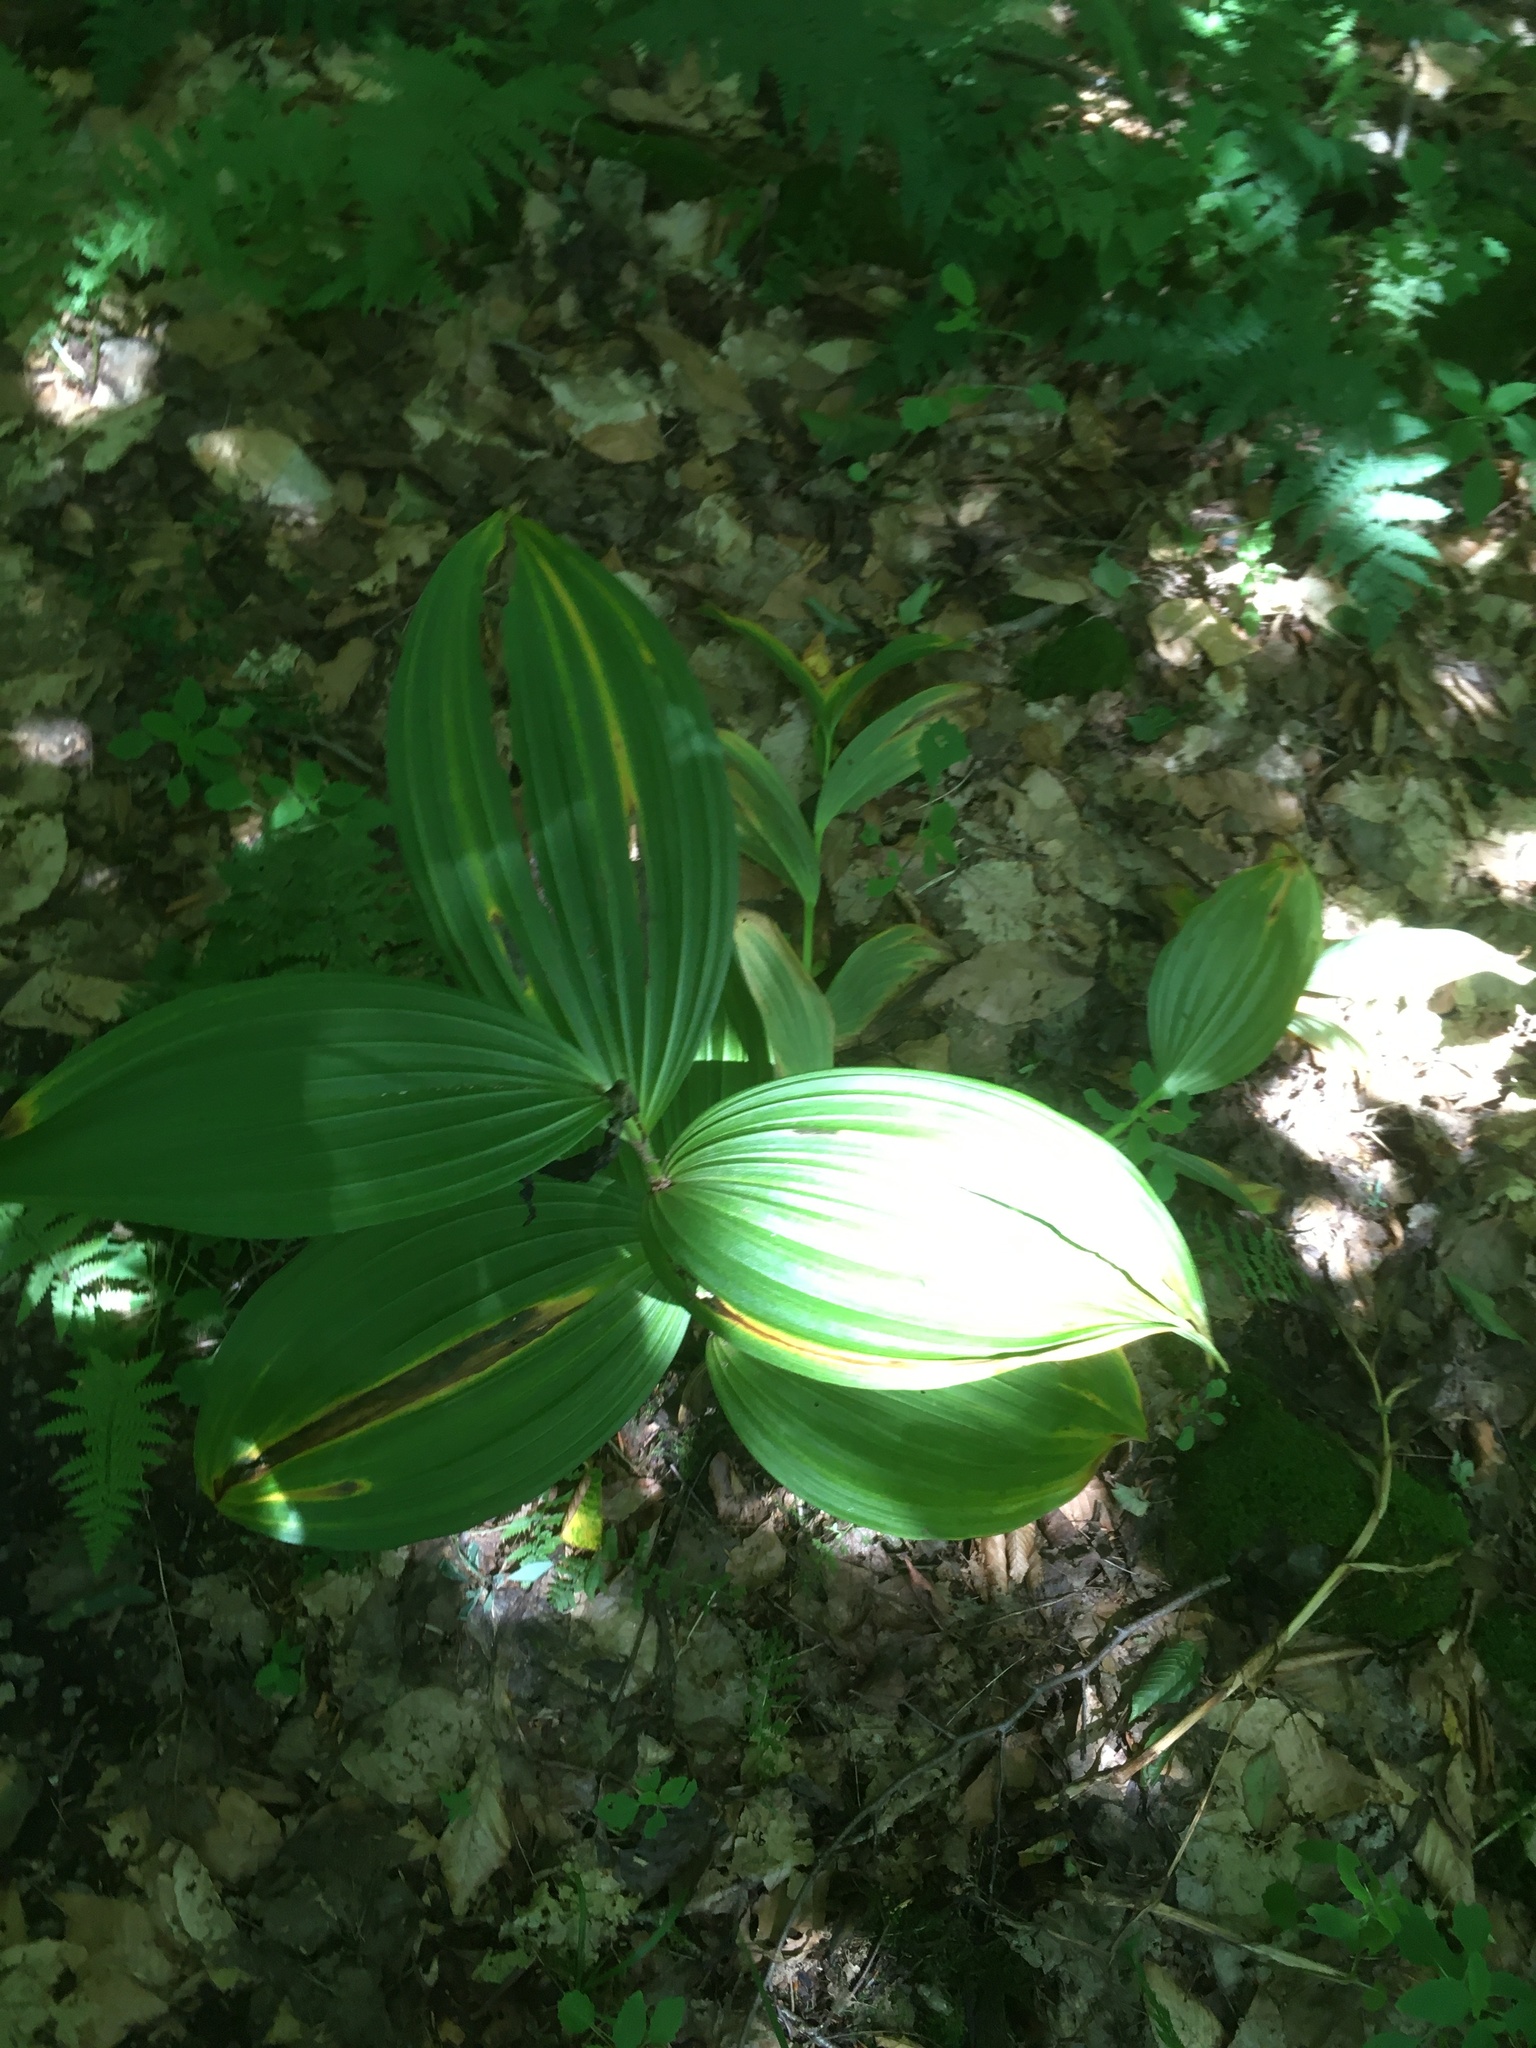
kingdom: Plantae
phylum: Tracheophyta
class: Liliopsida
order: Liliales
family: Melanthiaceae
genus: Veratrum
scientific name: Veratrum viride
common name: American false hellebore
